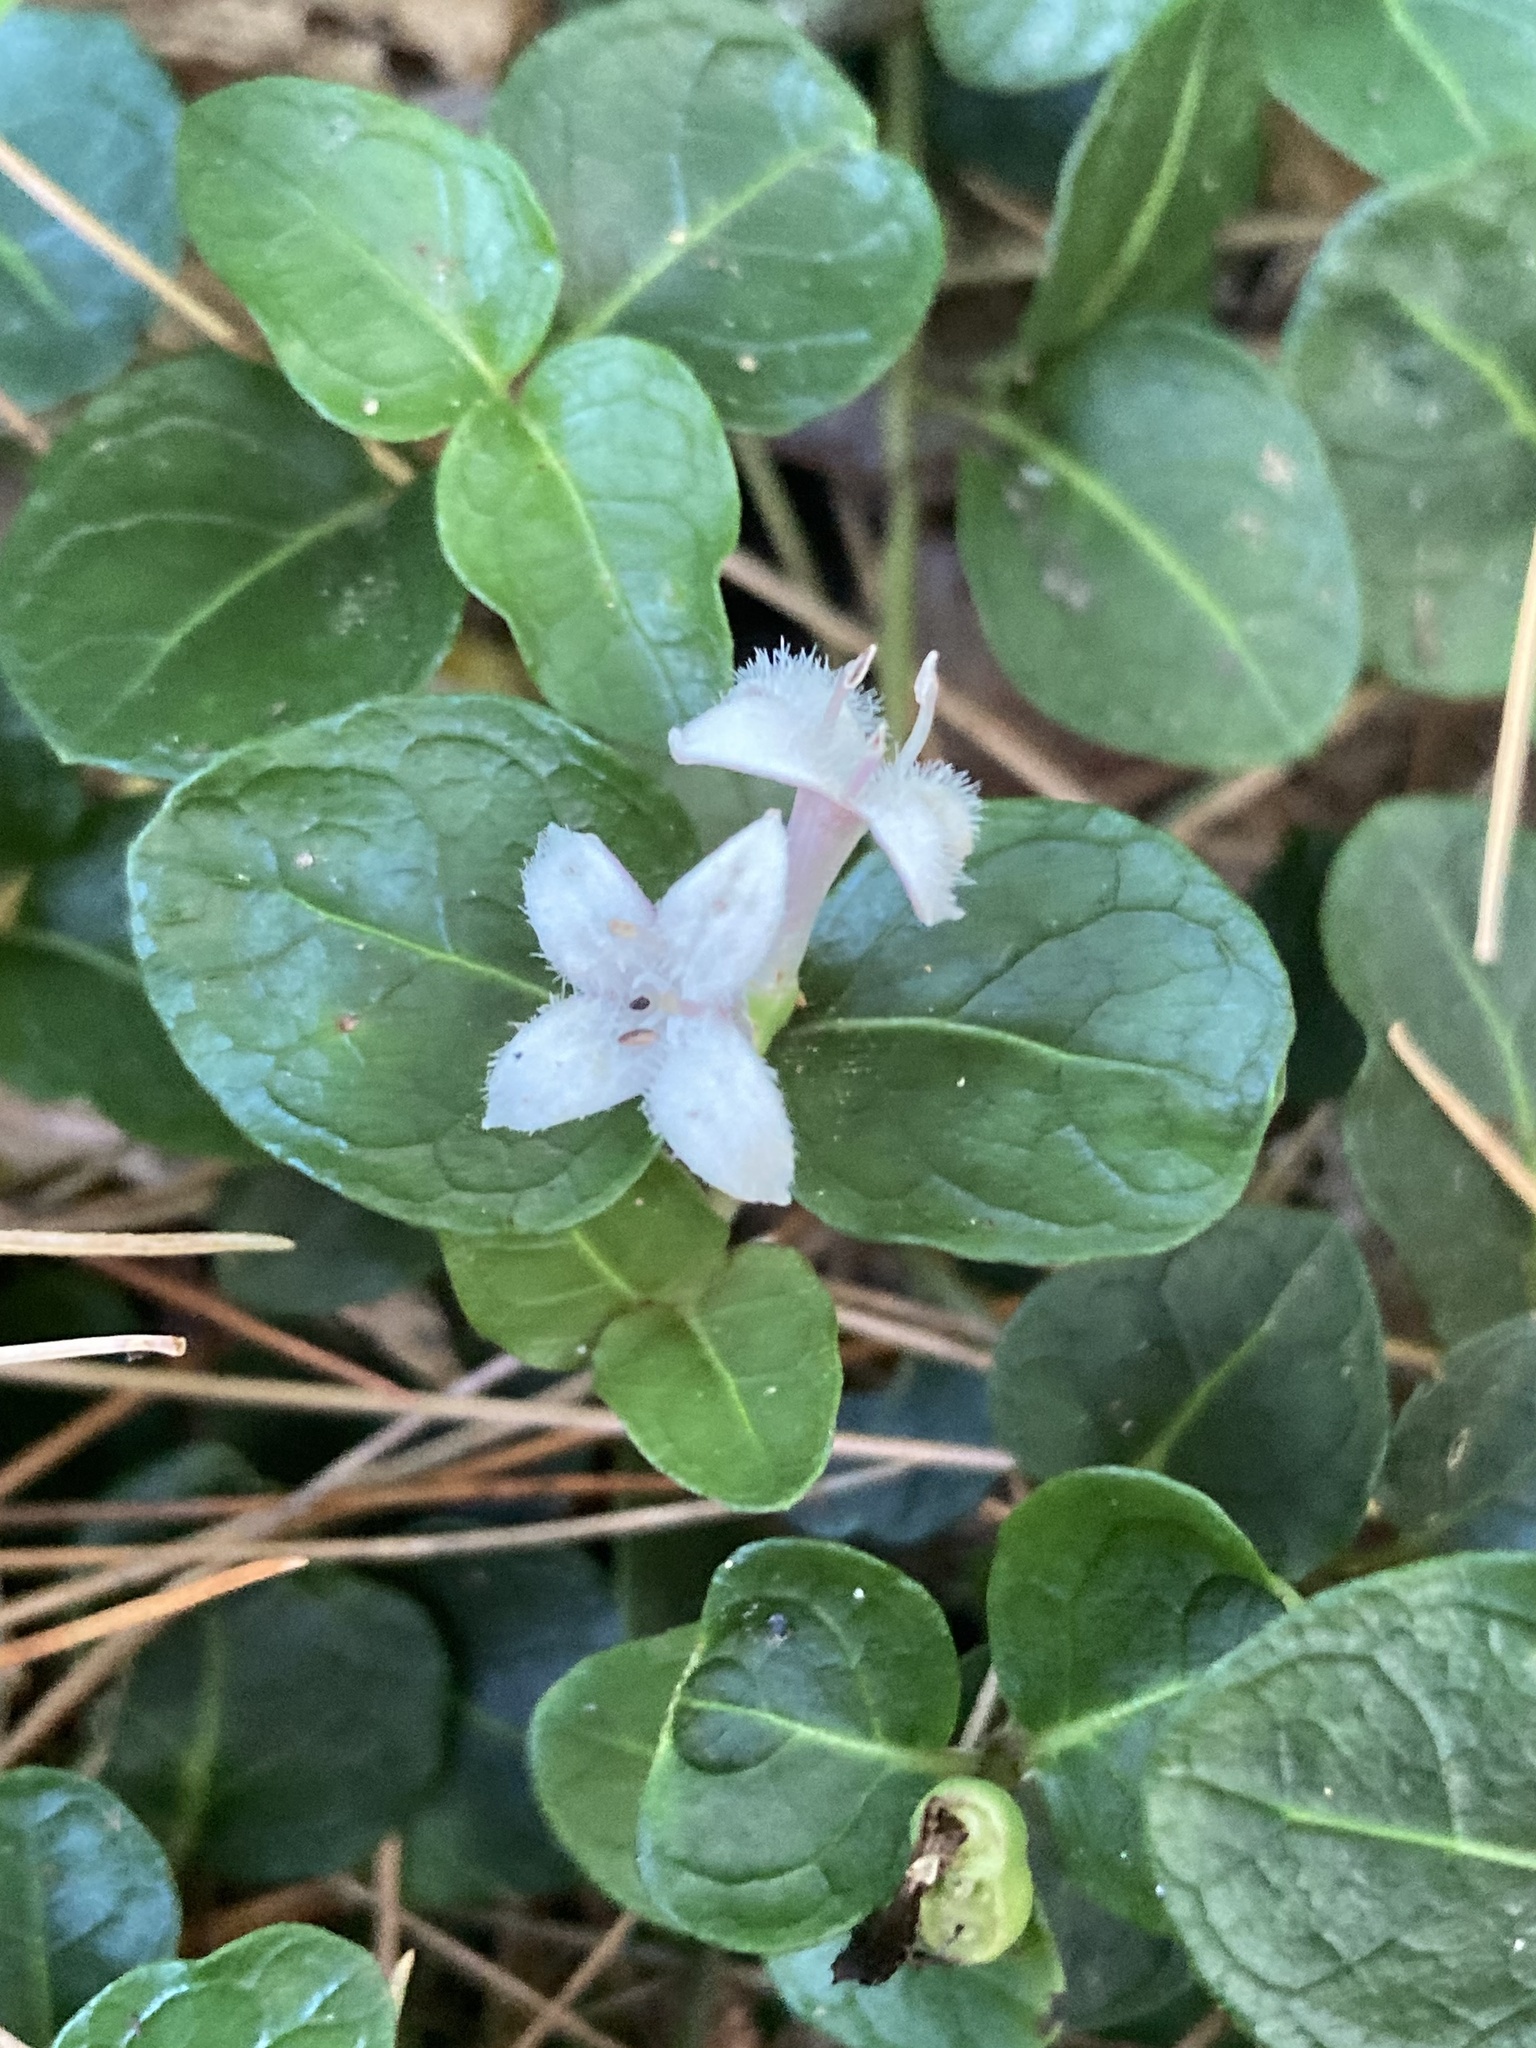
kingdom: Plantae
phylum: Tracheophyta
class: Magnoliopsida
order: Gentianales
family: Rubiaceae
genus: Mitchella
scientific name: Mitchella repens
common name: Partridge-berry
